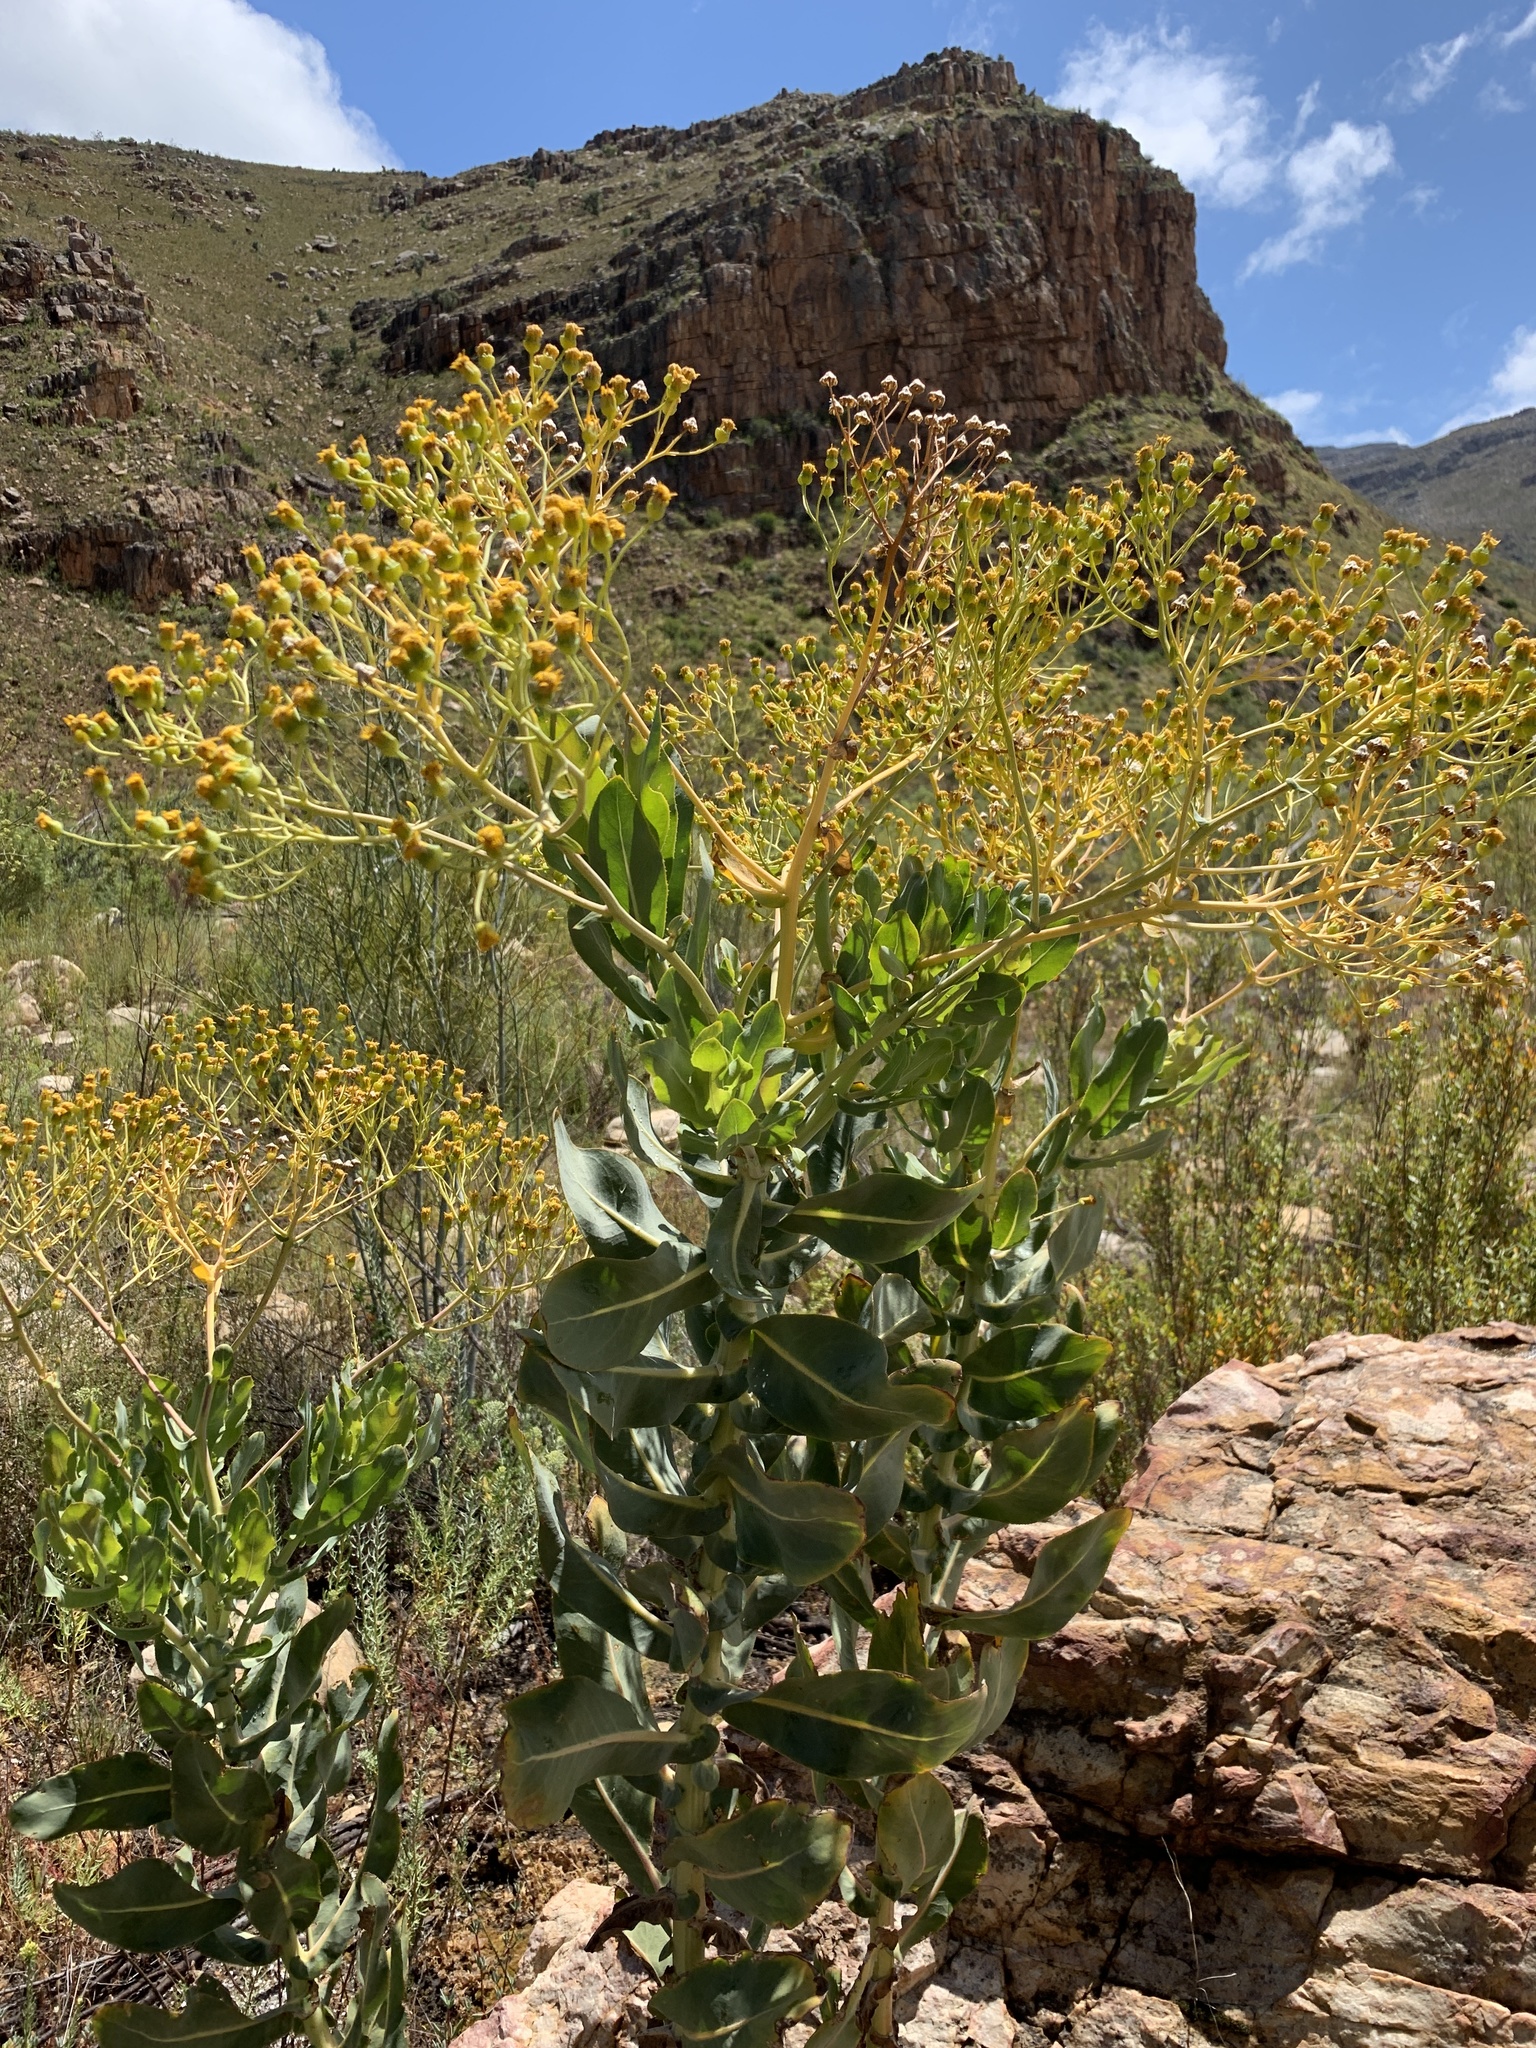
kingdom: Plantae
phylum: Tracheophyta
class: Magnoliopsida
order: Asterales
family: Asteraceae
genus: Othonna
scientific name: Othonna parviflora
